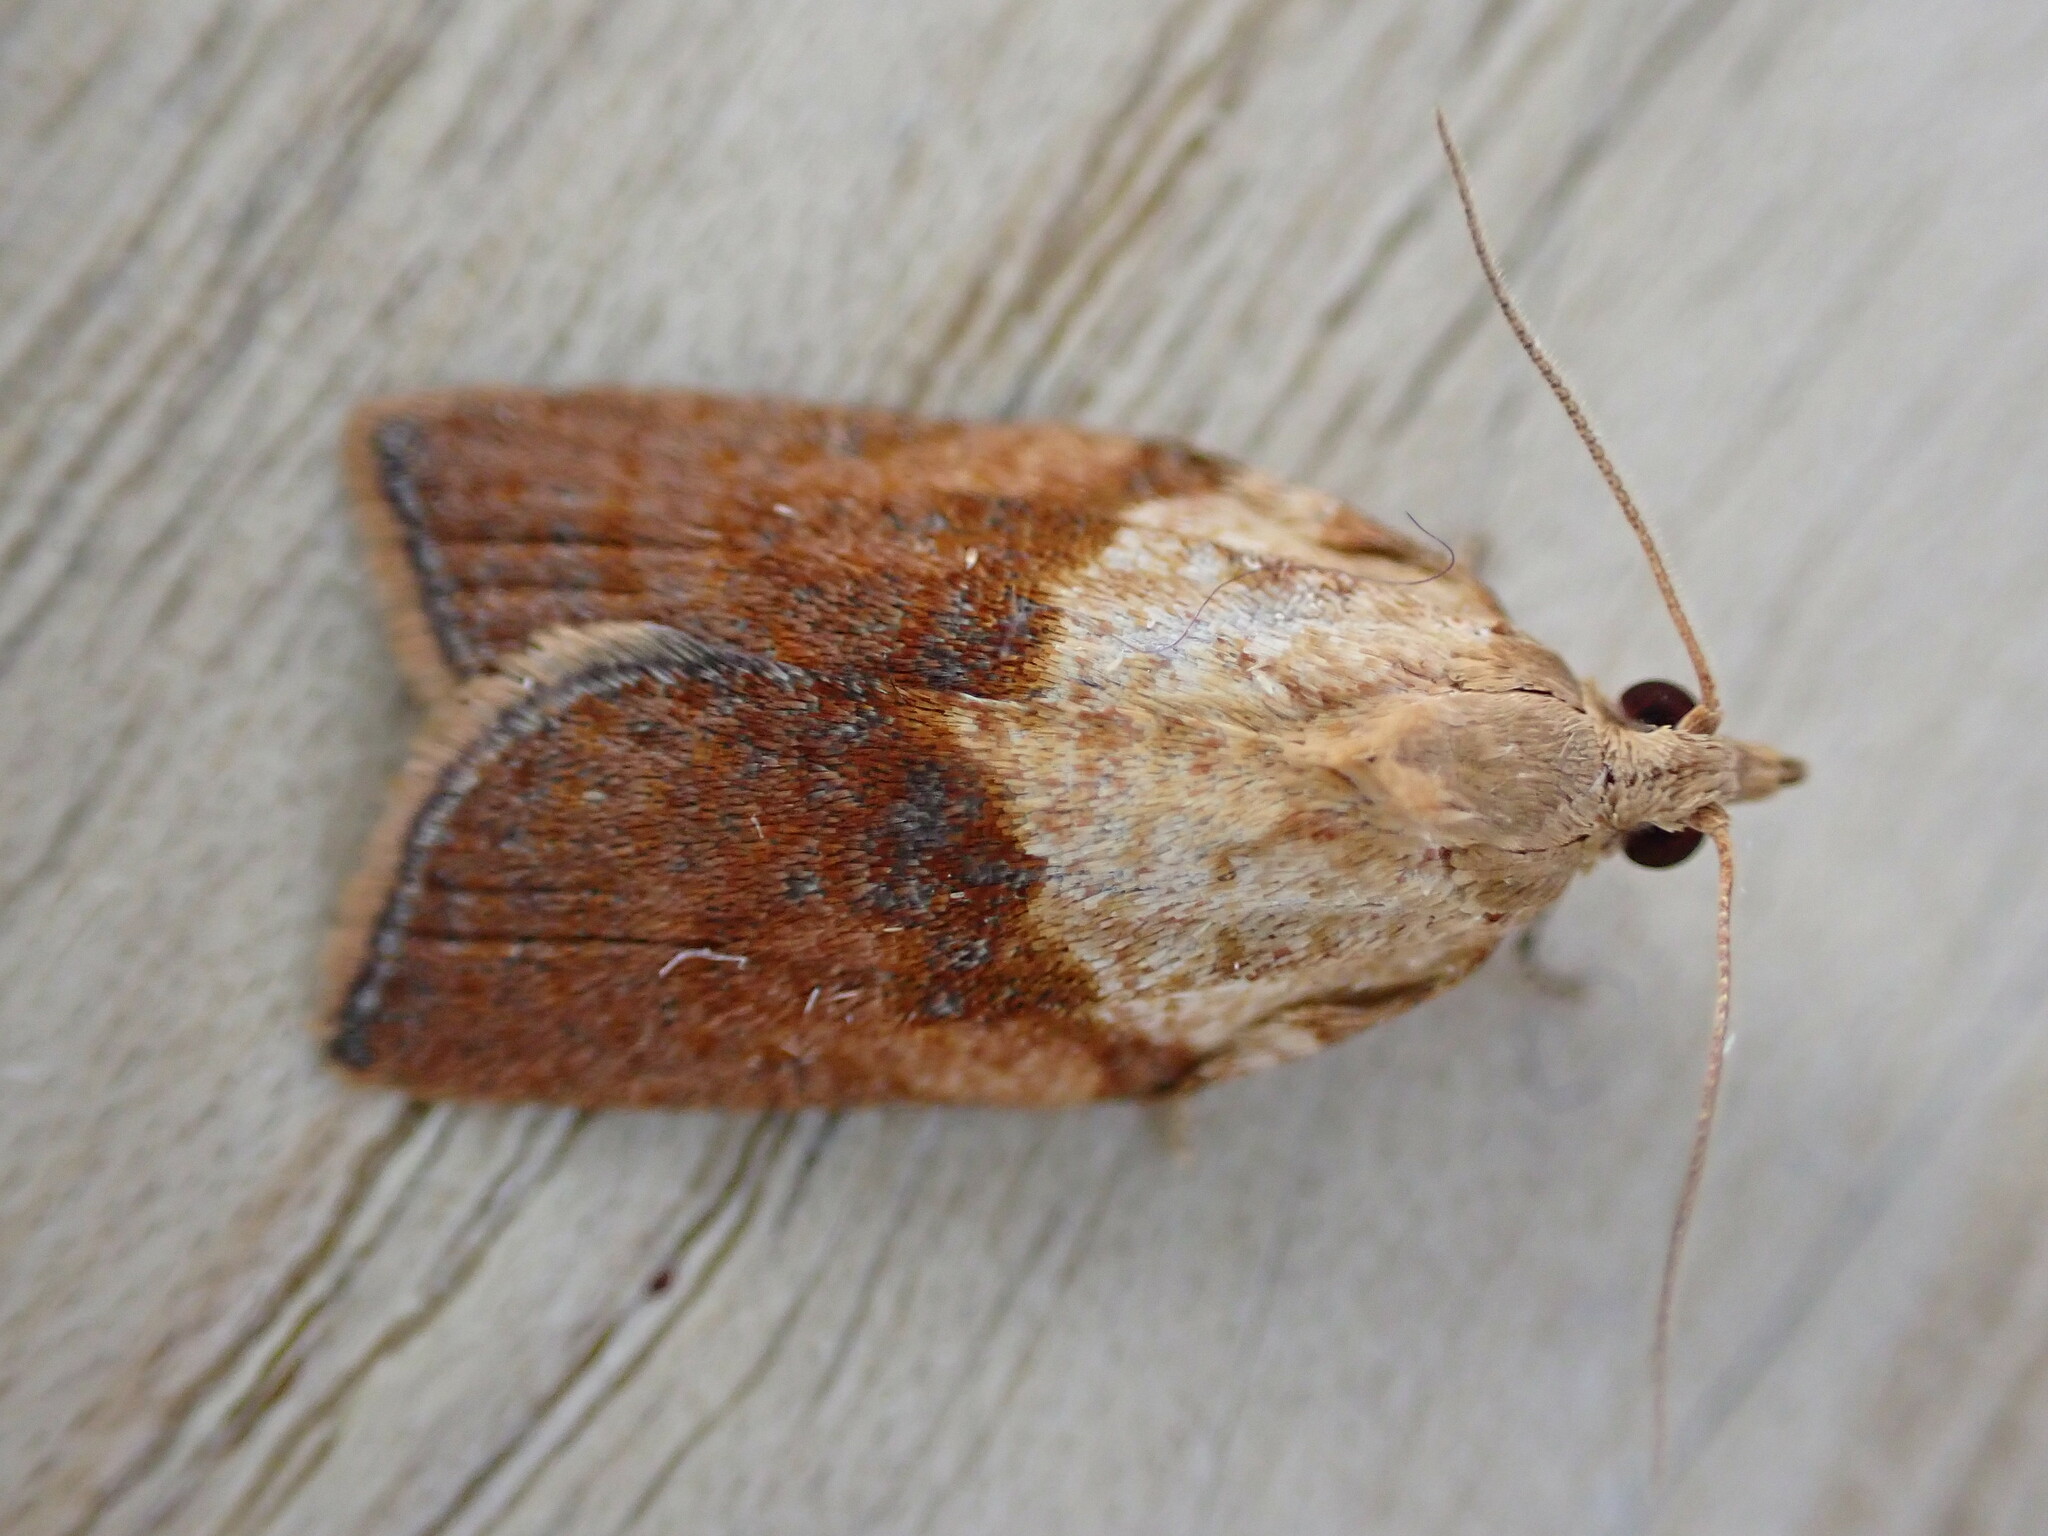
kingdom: Animalia
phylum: Arthropoda
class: Insecta
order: Lepidoptera
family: Tortricidae
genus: Epiphyas
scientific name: Epiphyas postvittana
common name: Light brown apple moth
